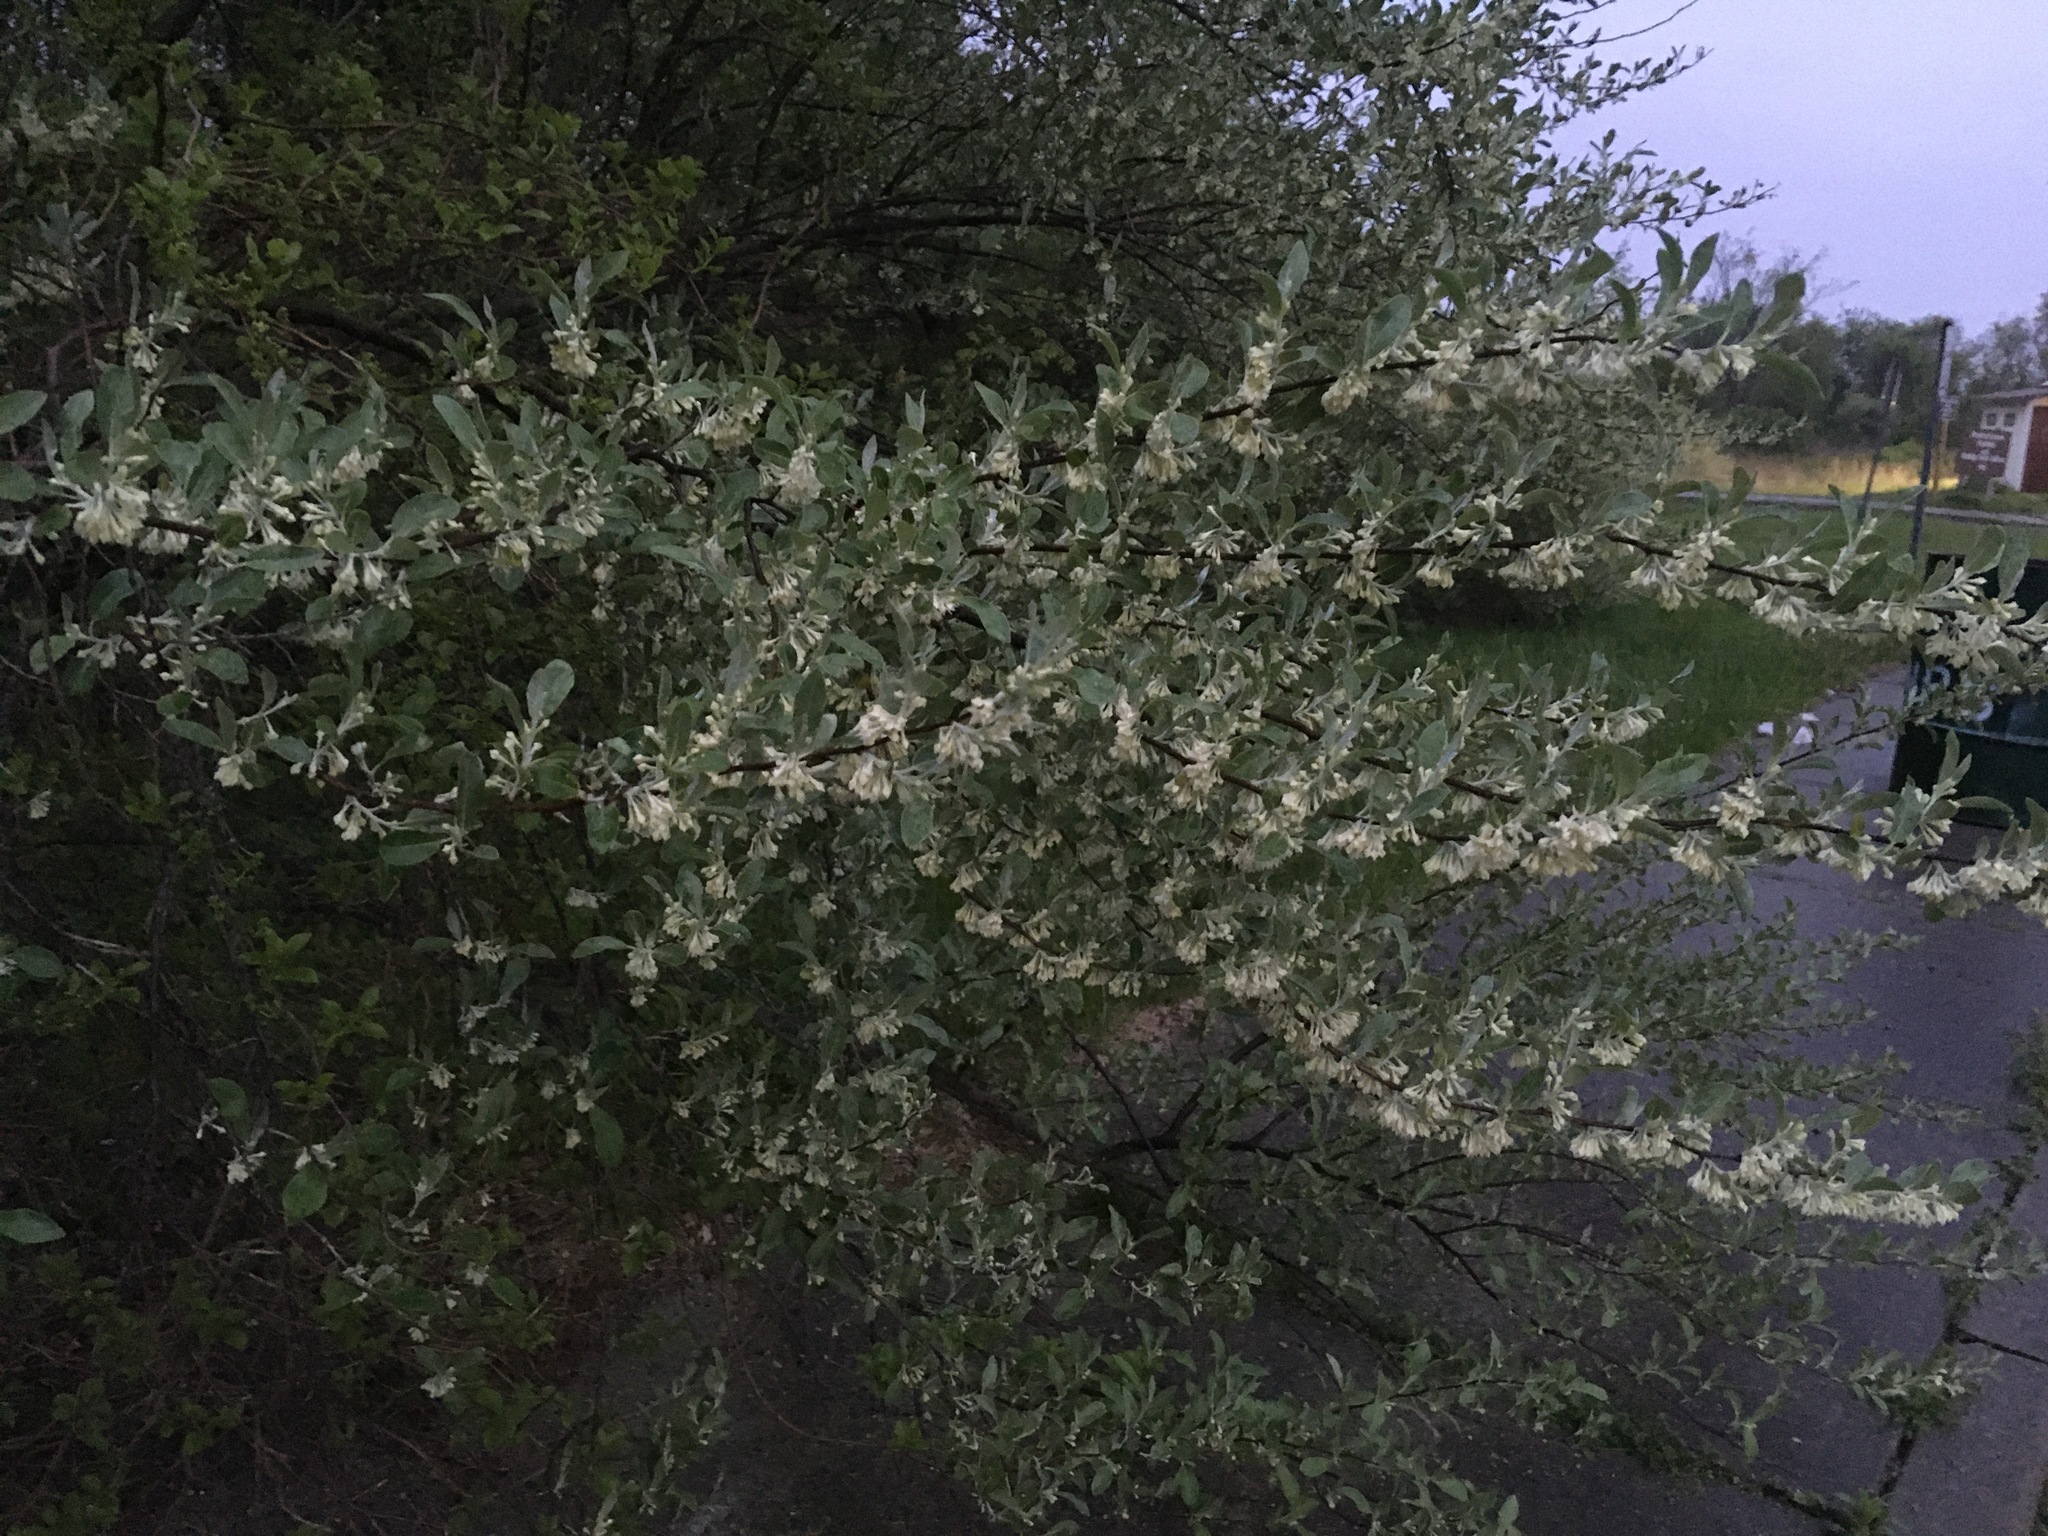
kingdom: Plantae
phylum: Tracheophyta
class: Magnoliopsida
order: Rosales
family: Elaeagnaceae
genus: Elaeagnus
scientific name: Elaeagnus umbellata
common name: Autumn olive
